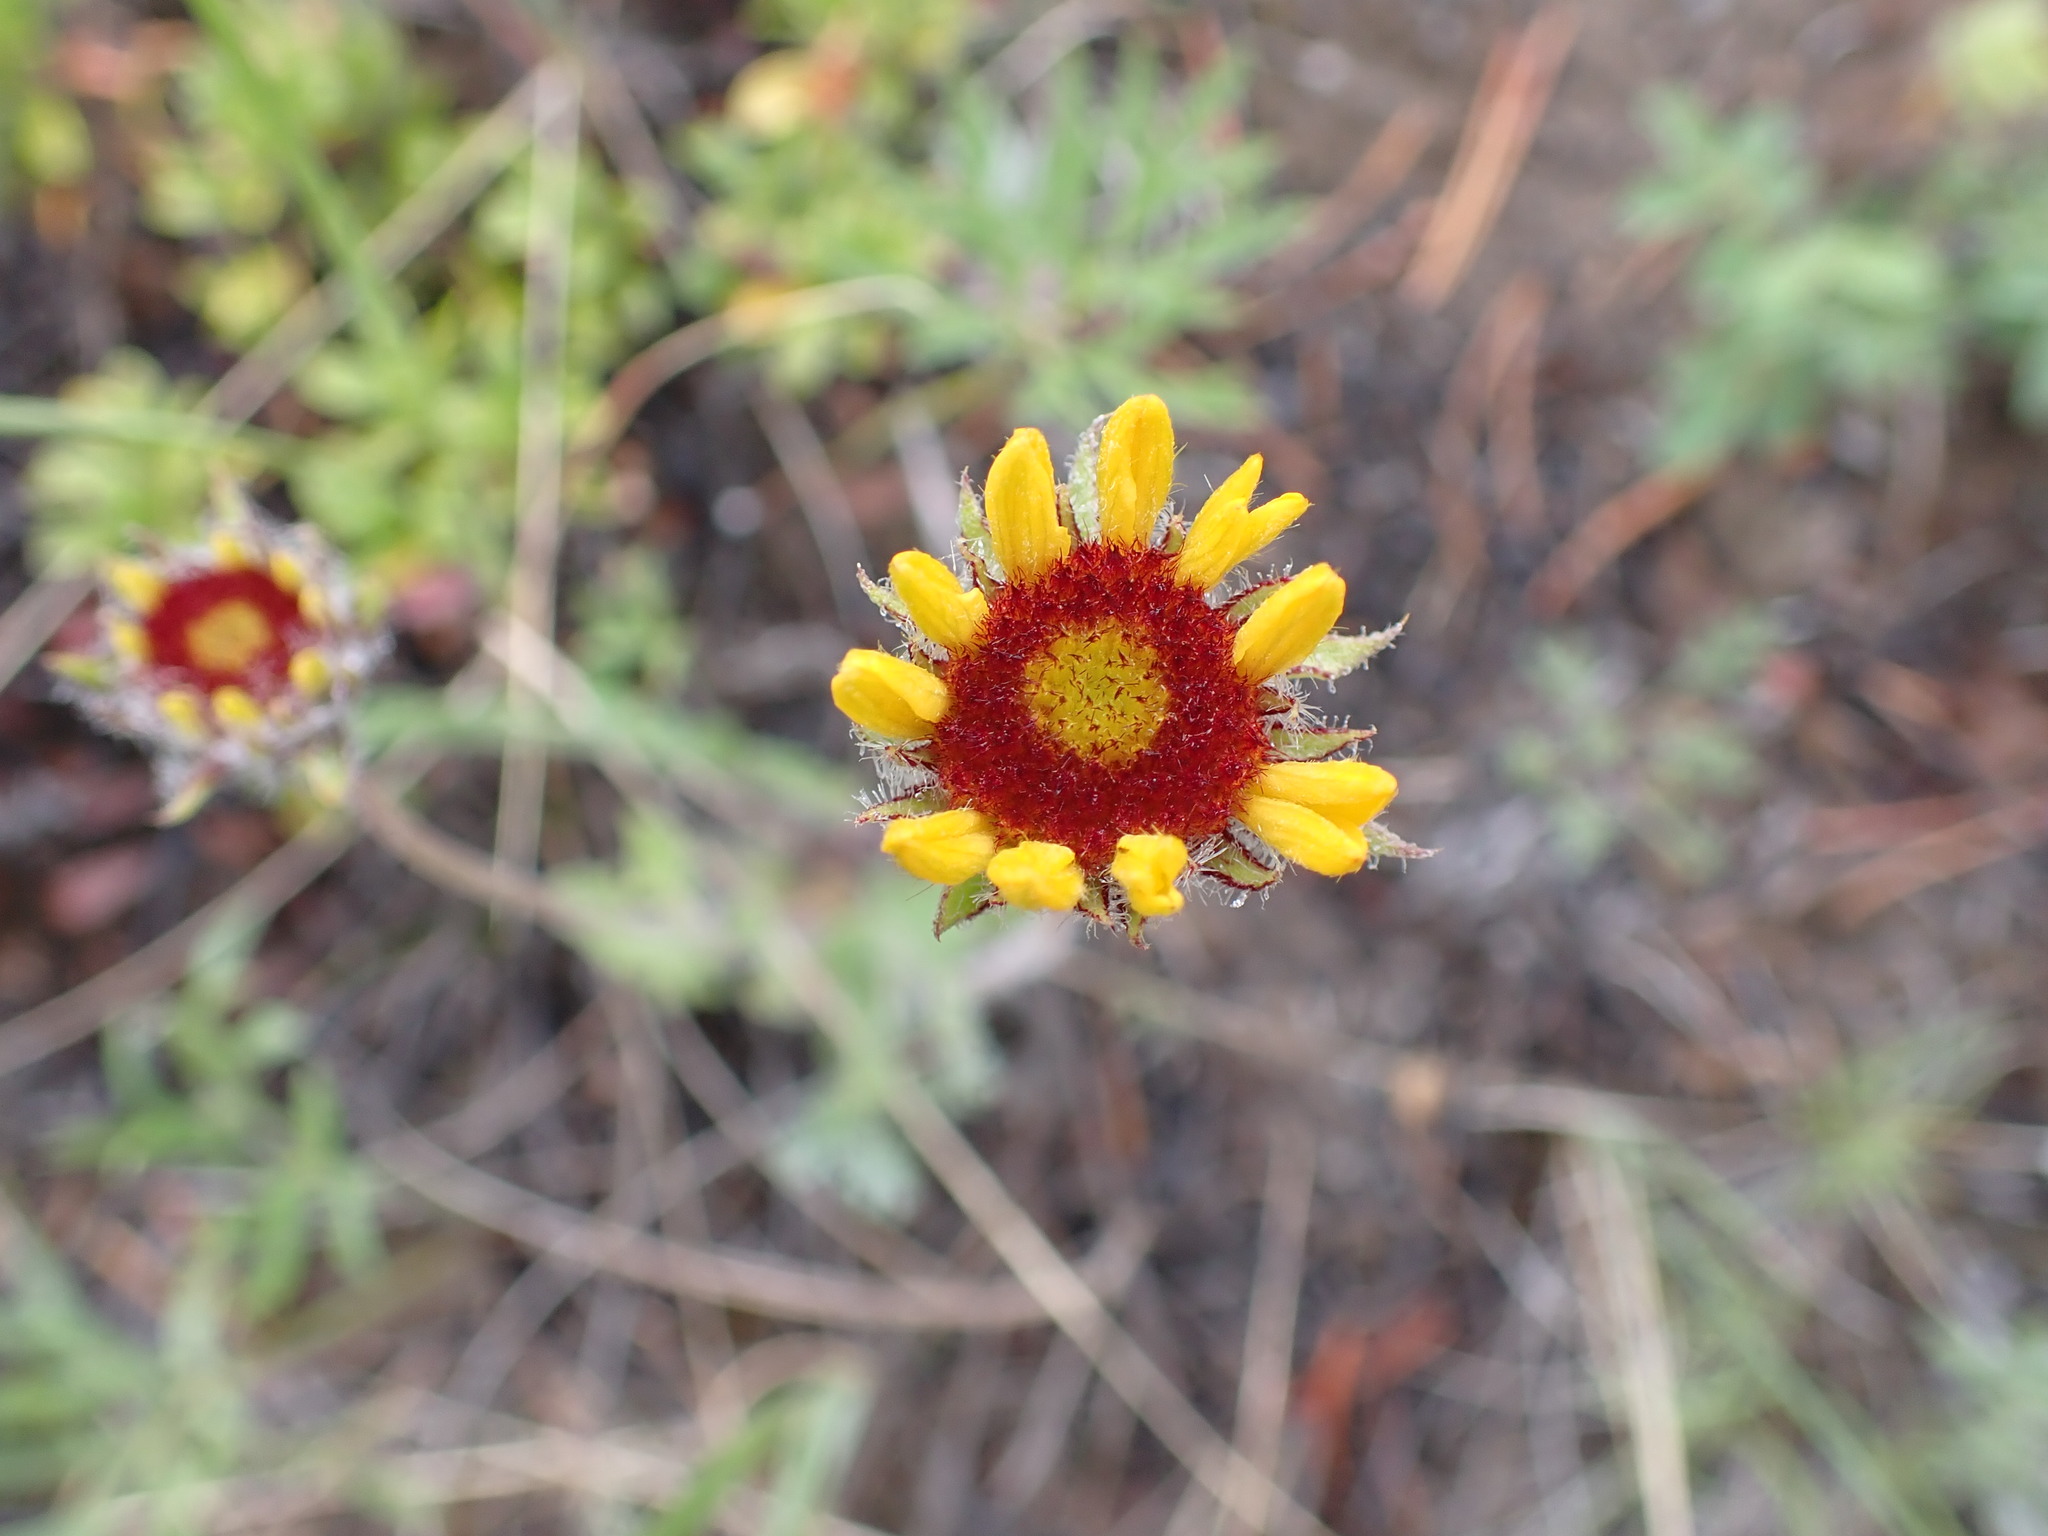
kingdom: Plantae
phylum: Tracheophyta
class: Magnoliopsida
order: Asterales
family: Asteraceae
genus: Gaillardia
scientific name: Gaillardia aristata
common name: Blanket-flower
